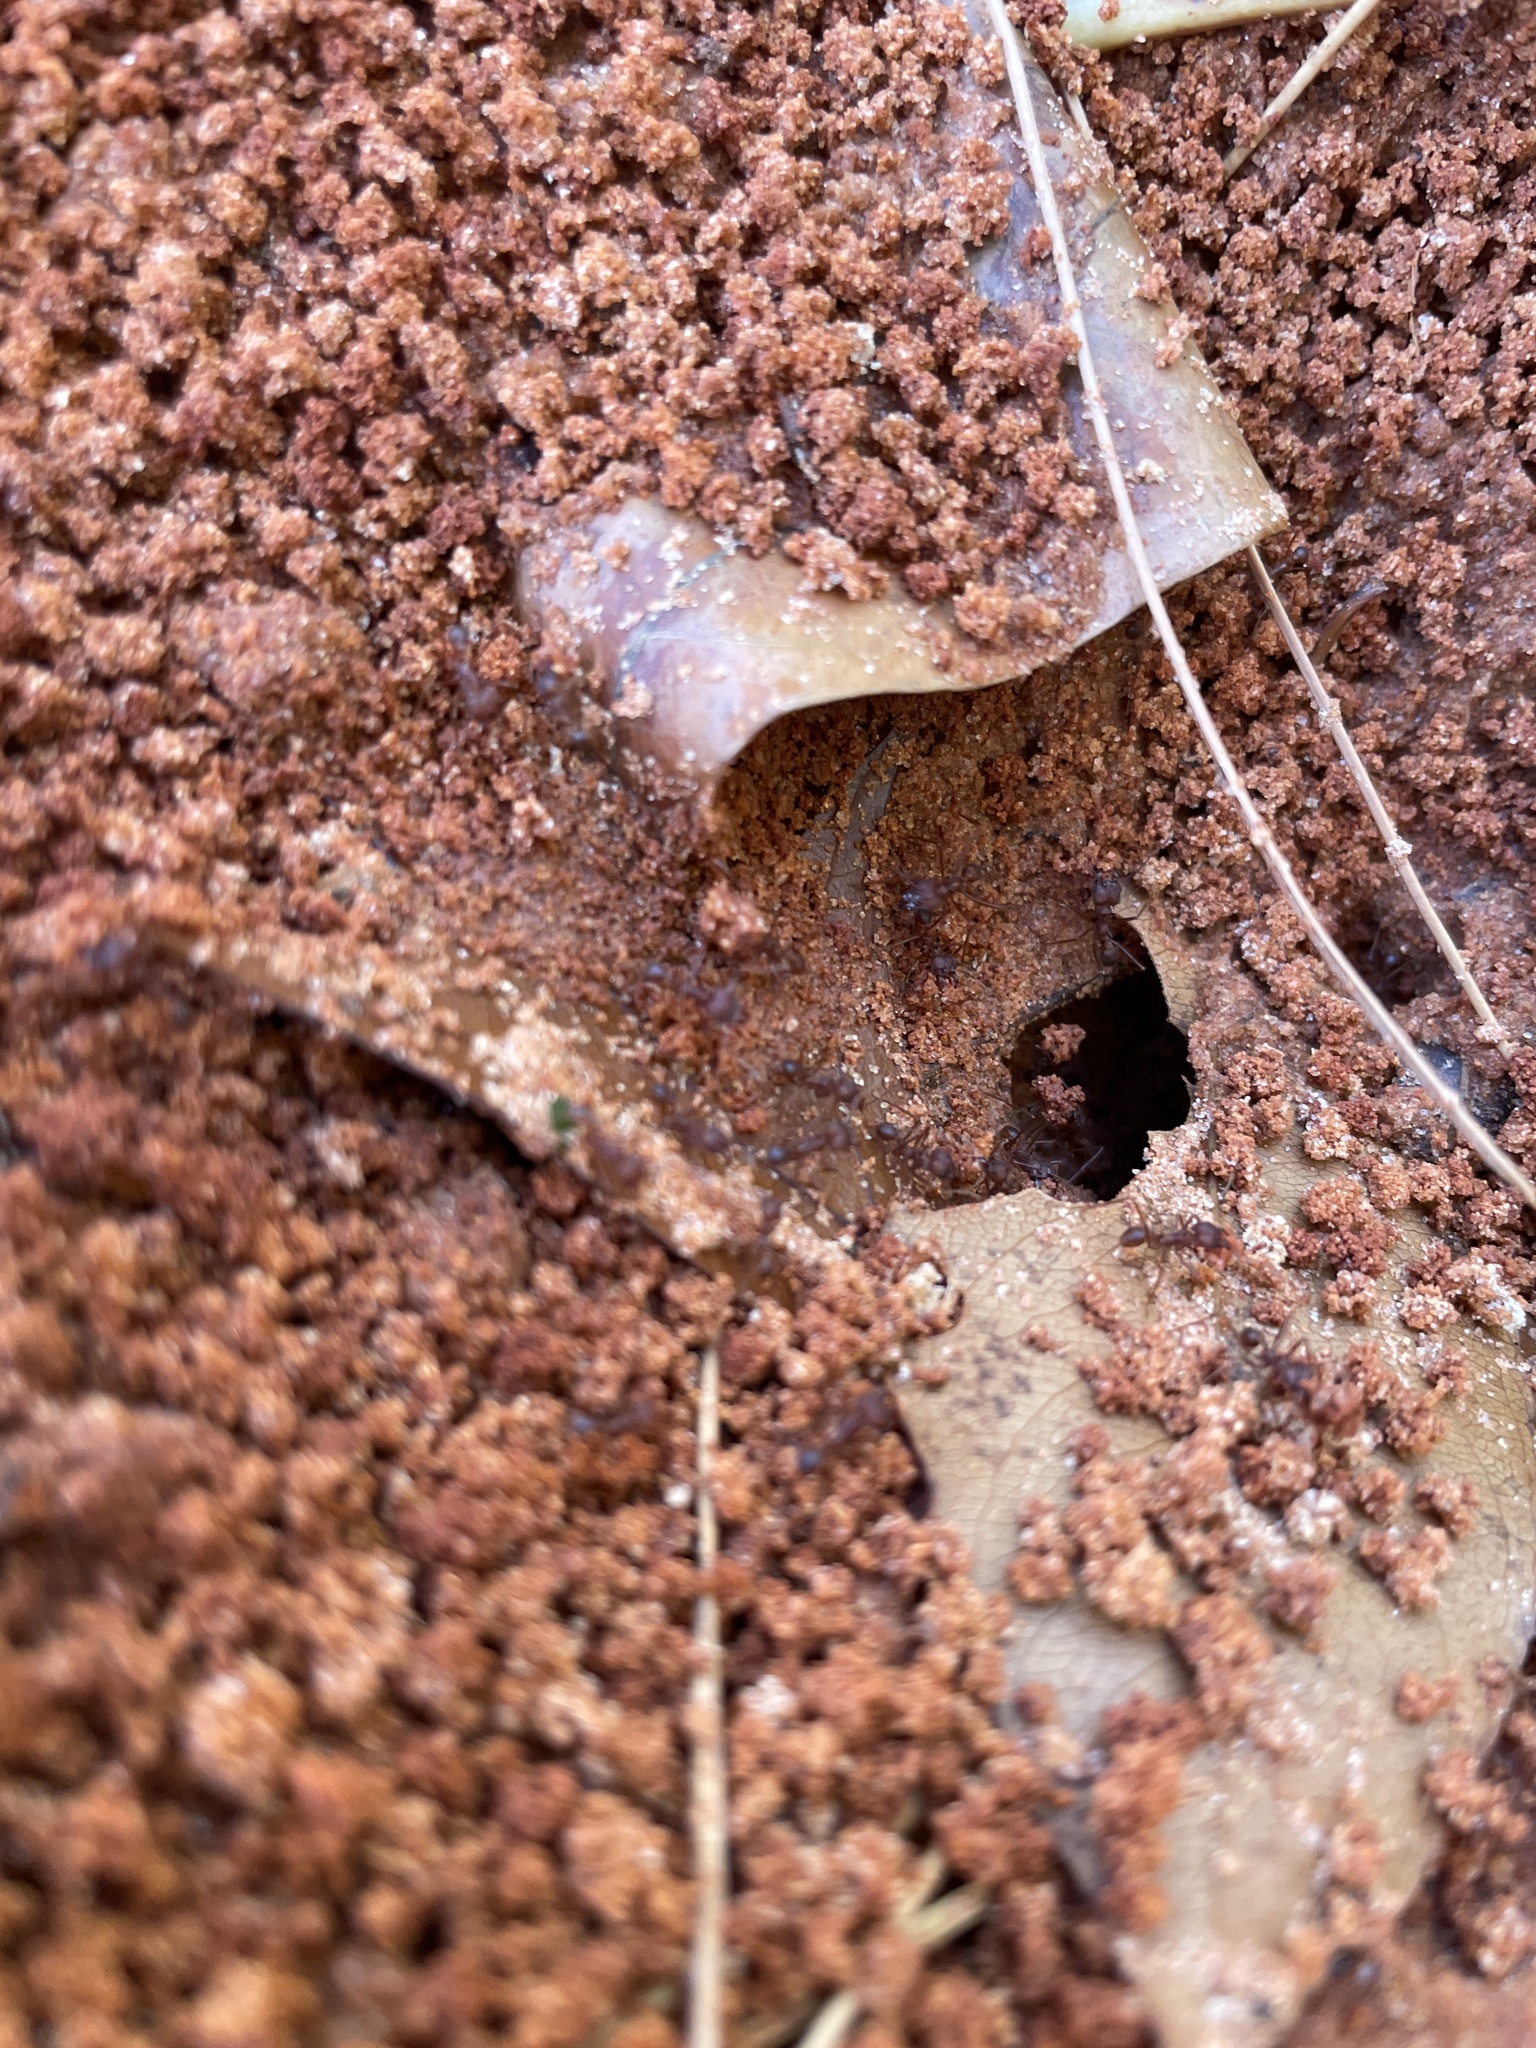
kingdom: Animalia
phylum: Arthropoda
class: Insecta
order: Hymenoptera
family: Formicidae
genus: Atta
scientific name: Atta texana
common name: Texas leafcutting ant
